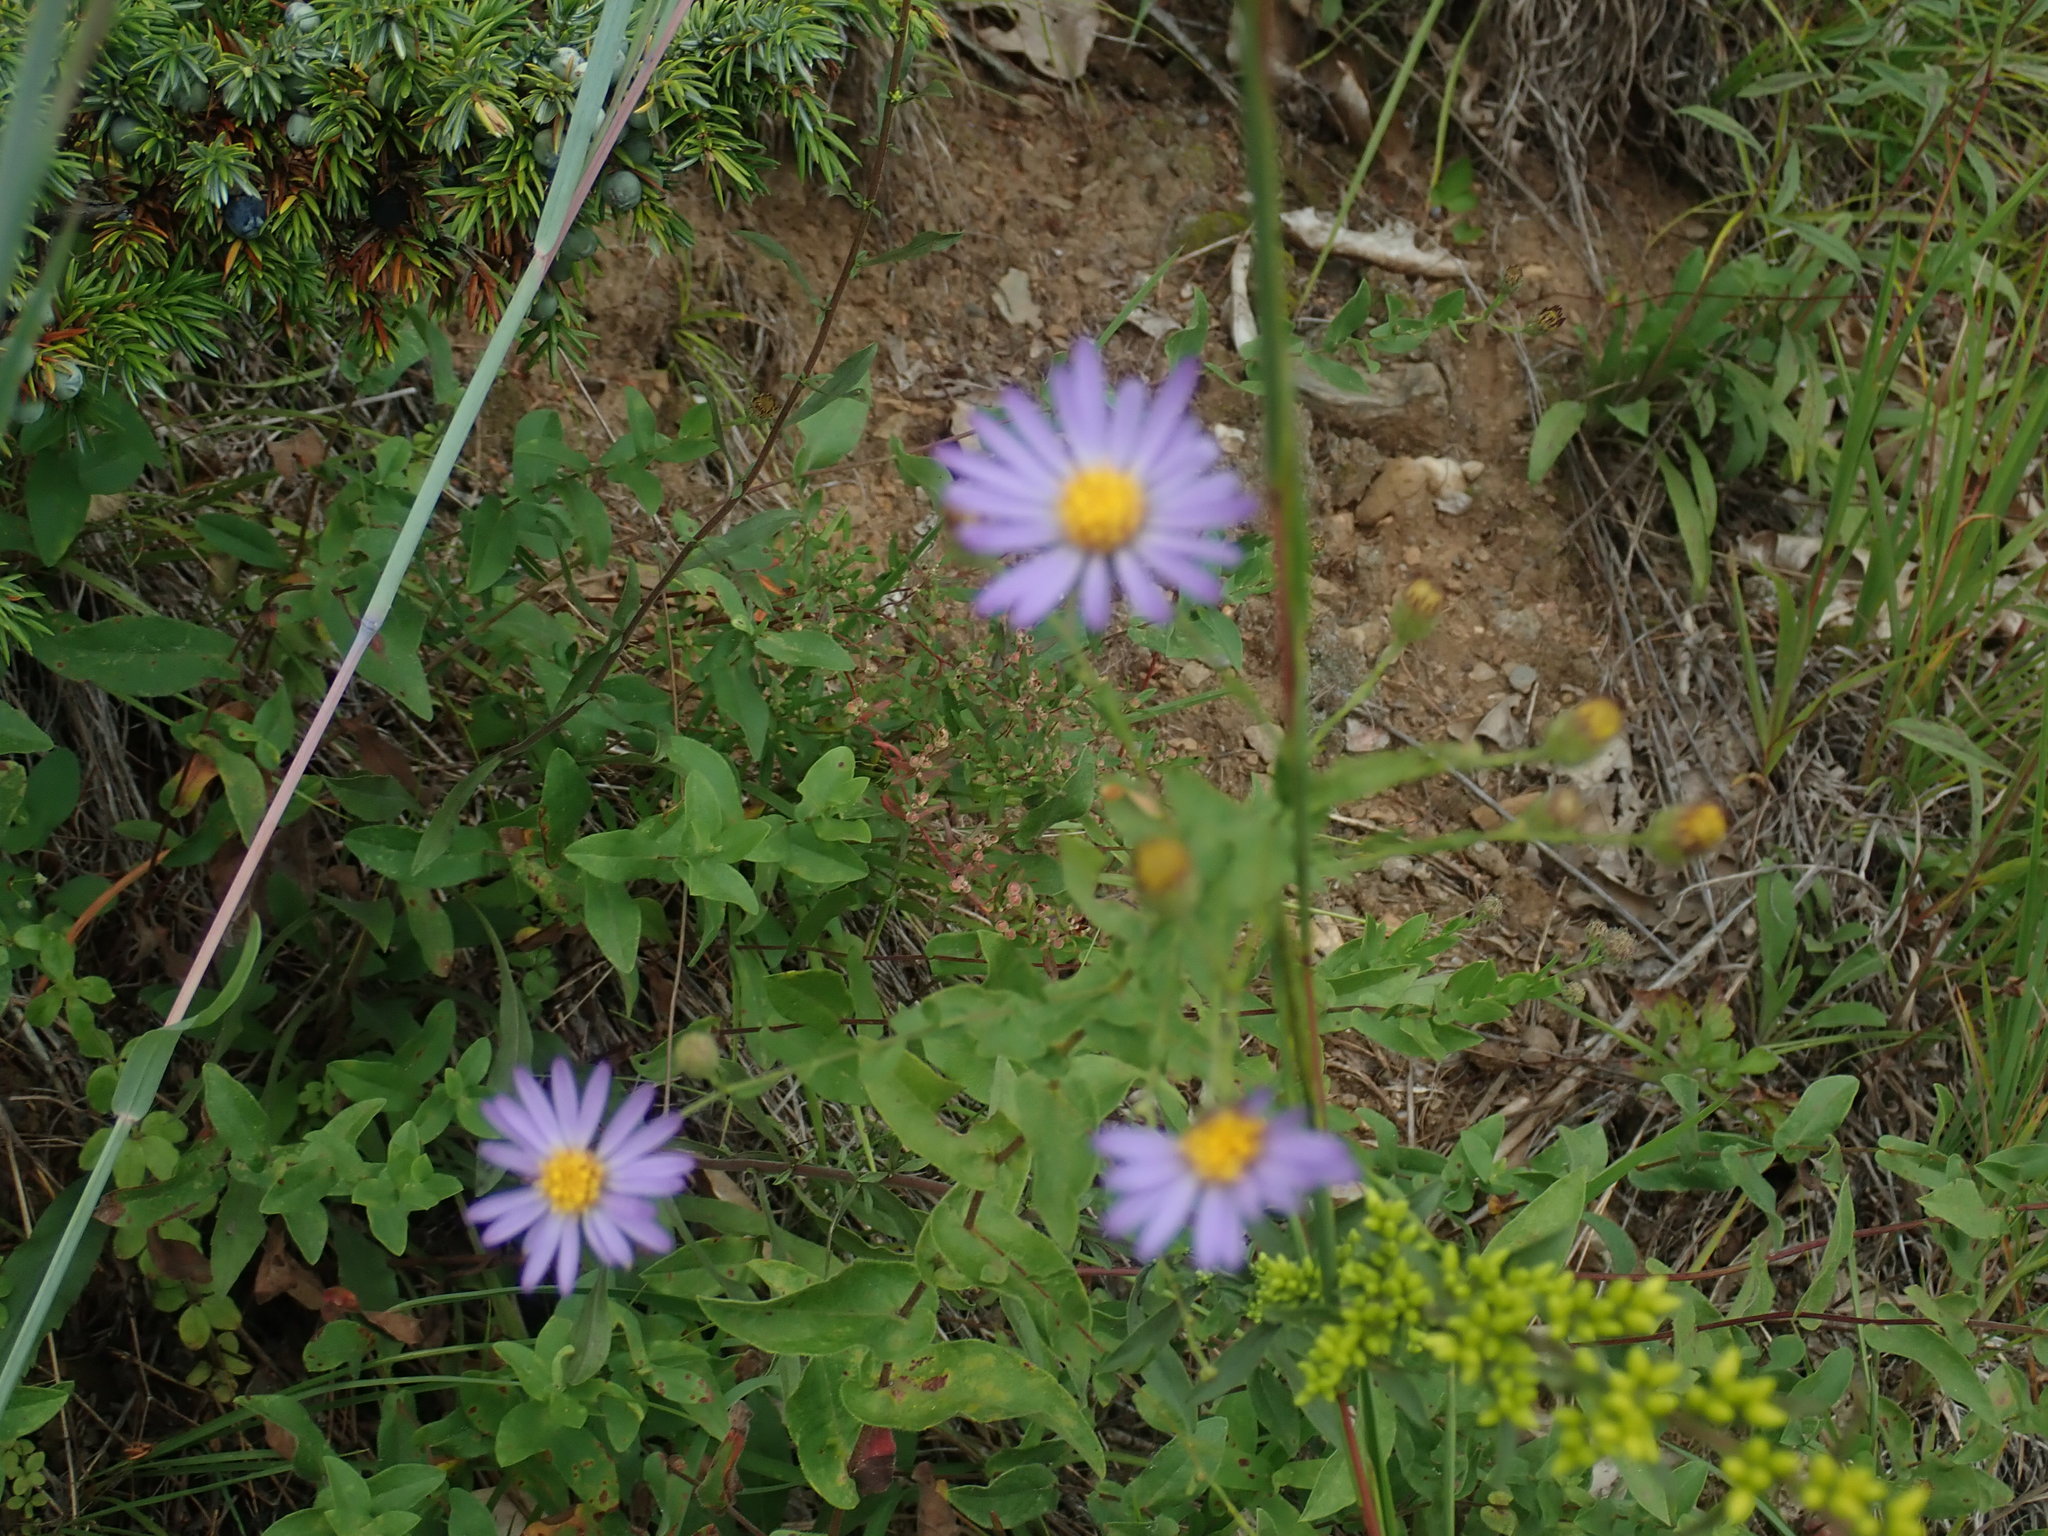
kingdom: Plantae
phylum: Tracheophyta
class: Magnoliopsida
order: Asterales
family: Asteraceae
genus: Symphyotrichum
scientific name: Symphyotrichum patens
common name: Late purple aster
